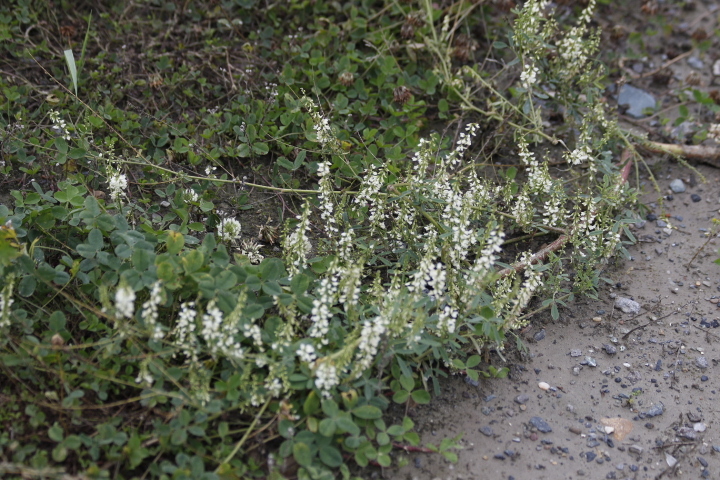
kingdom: Plantae
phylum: Tracheophyta
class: Magnoliopsida
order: Fabales
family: Fabaceae
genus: Melilotus
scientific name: Melilotus albus
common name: White melilot
